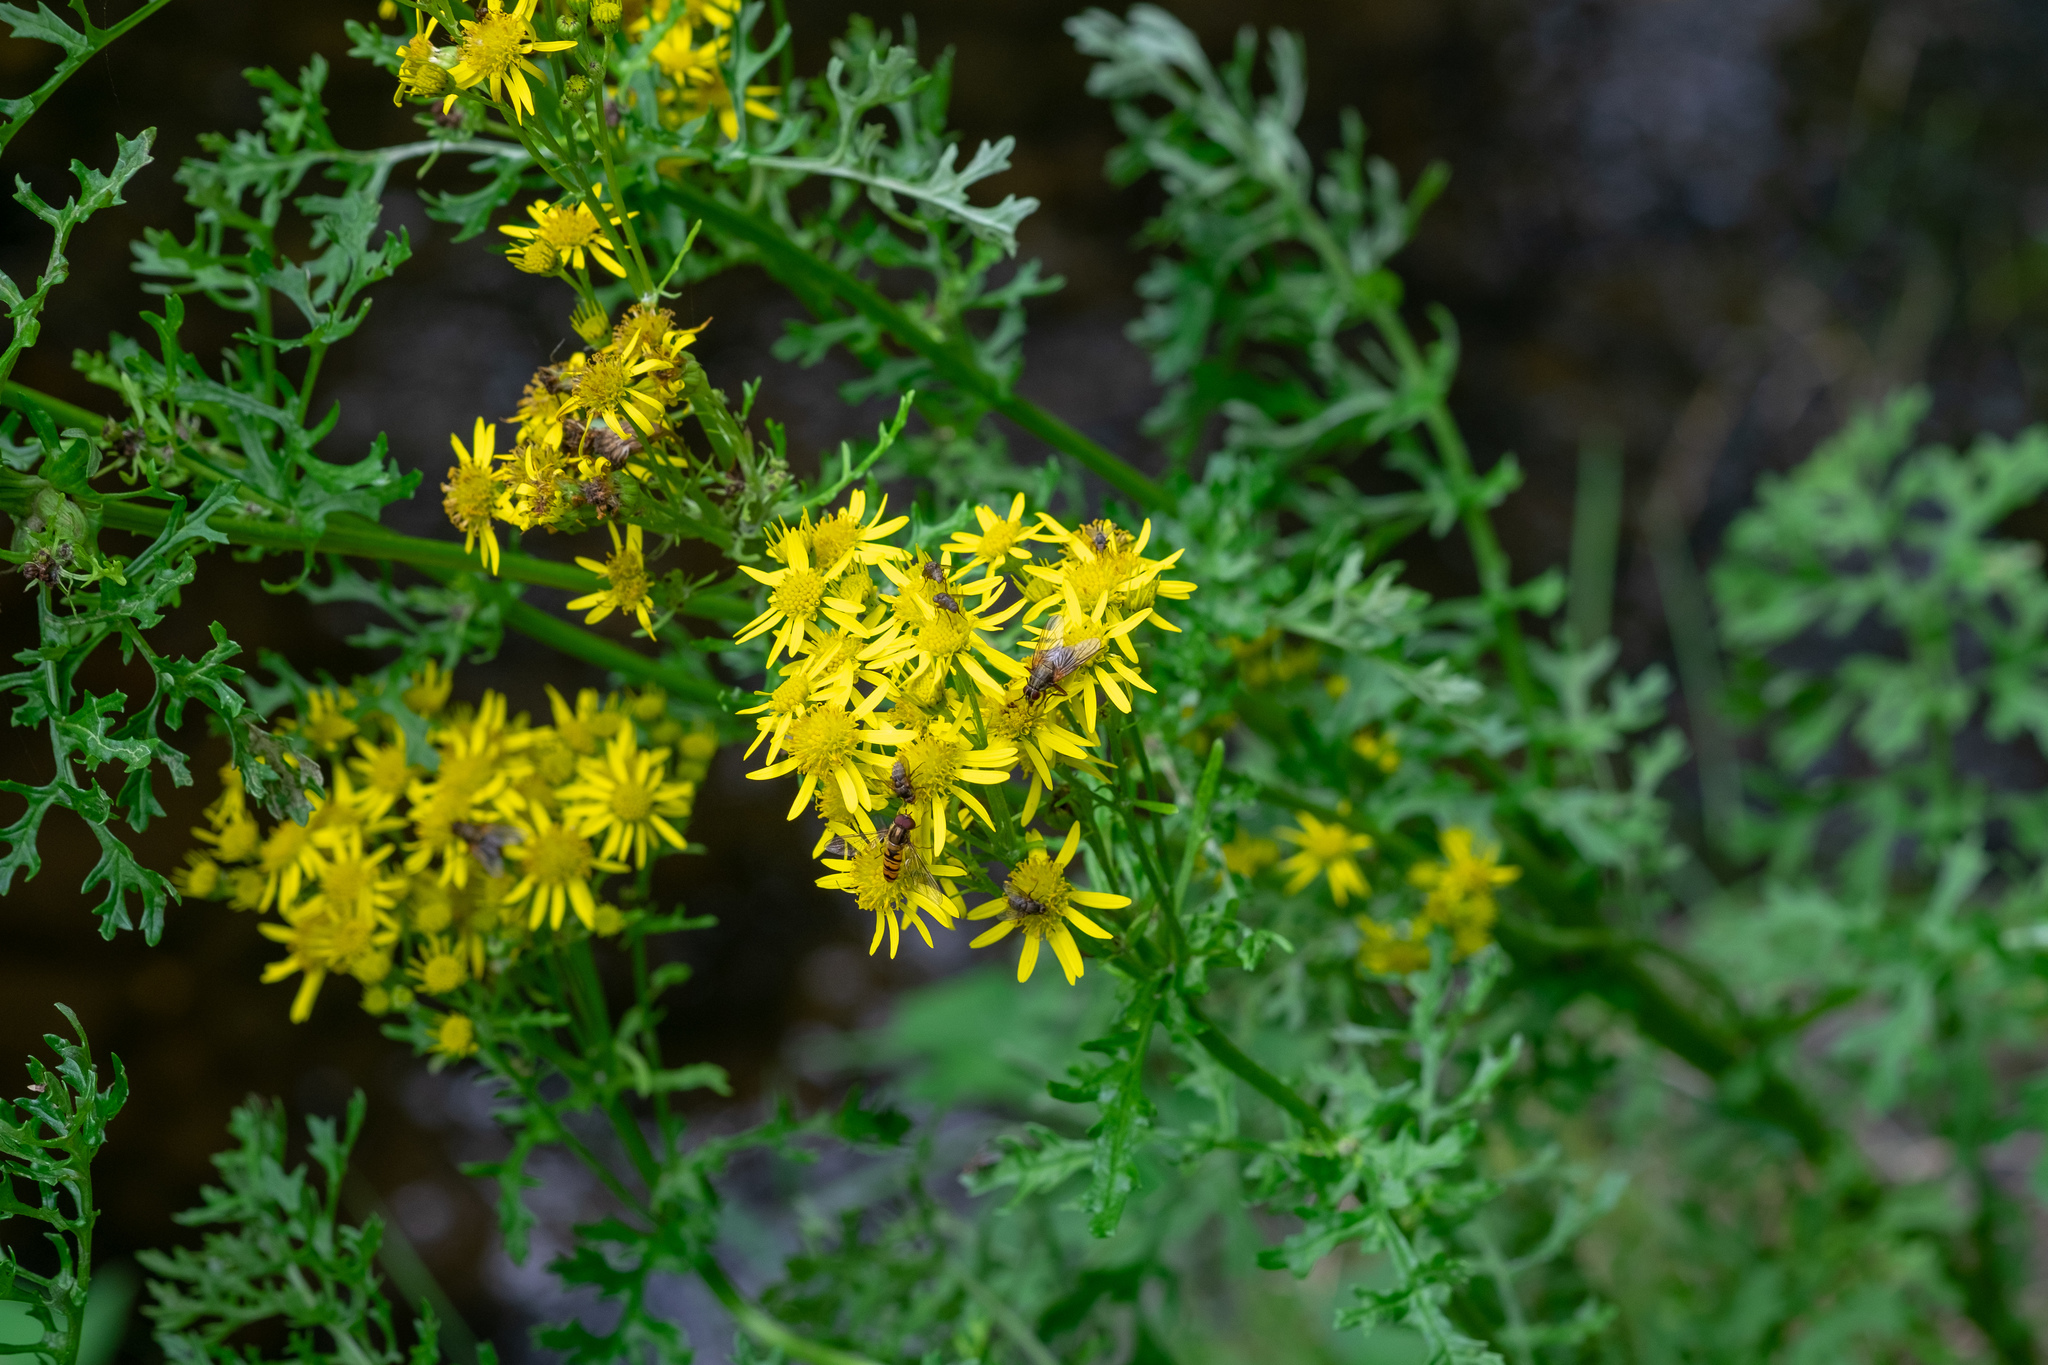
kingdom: Plantae
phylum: Tracheophyta
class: Magnoliopsida
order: Asterales
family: Asteraceae
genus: Jacobaea
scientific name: Jacobaea vulgaris
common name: Stinking willie
